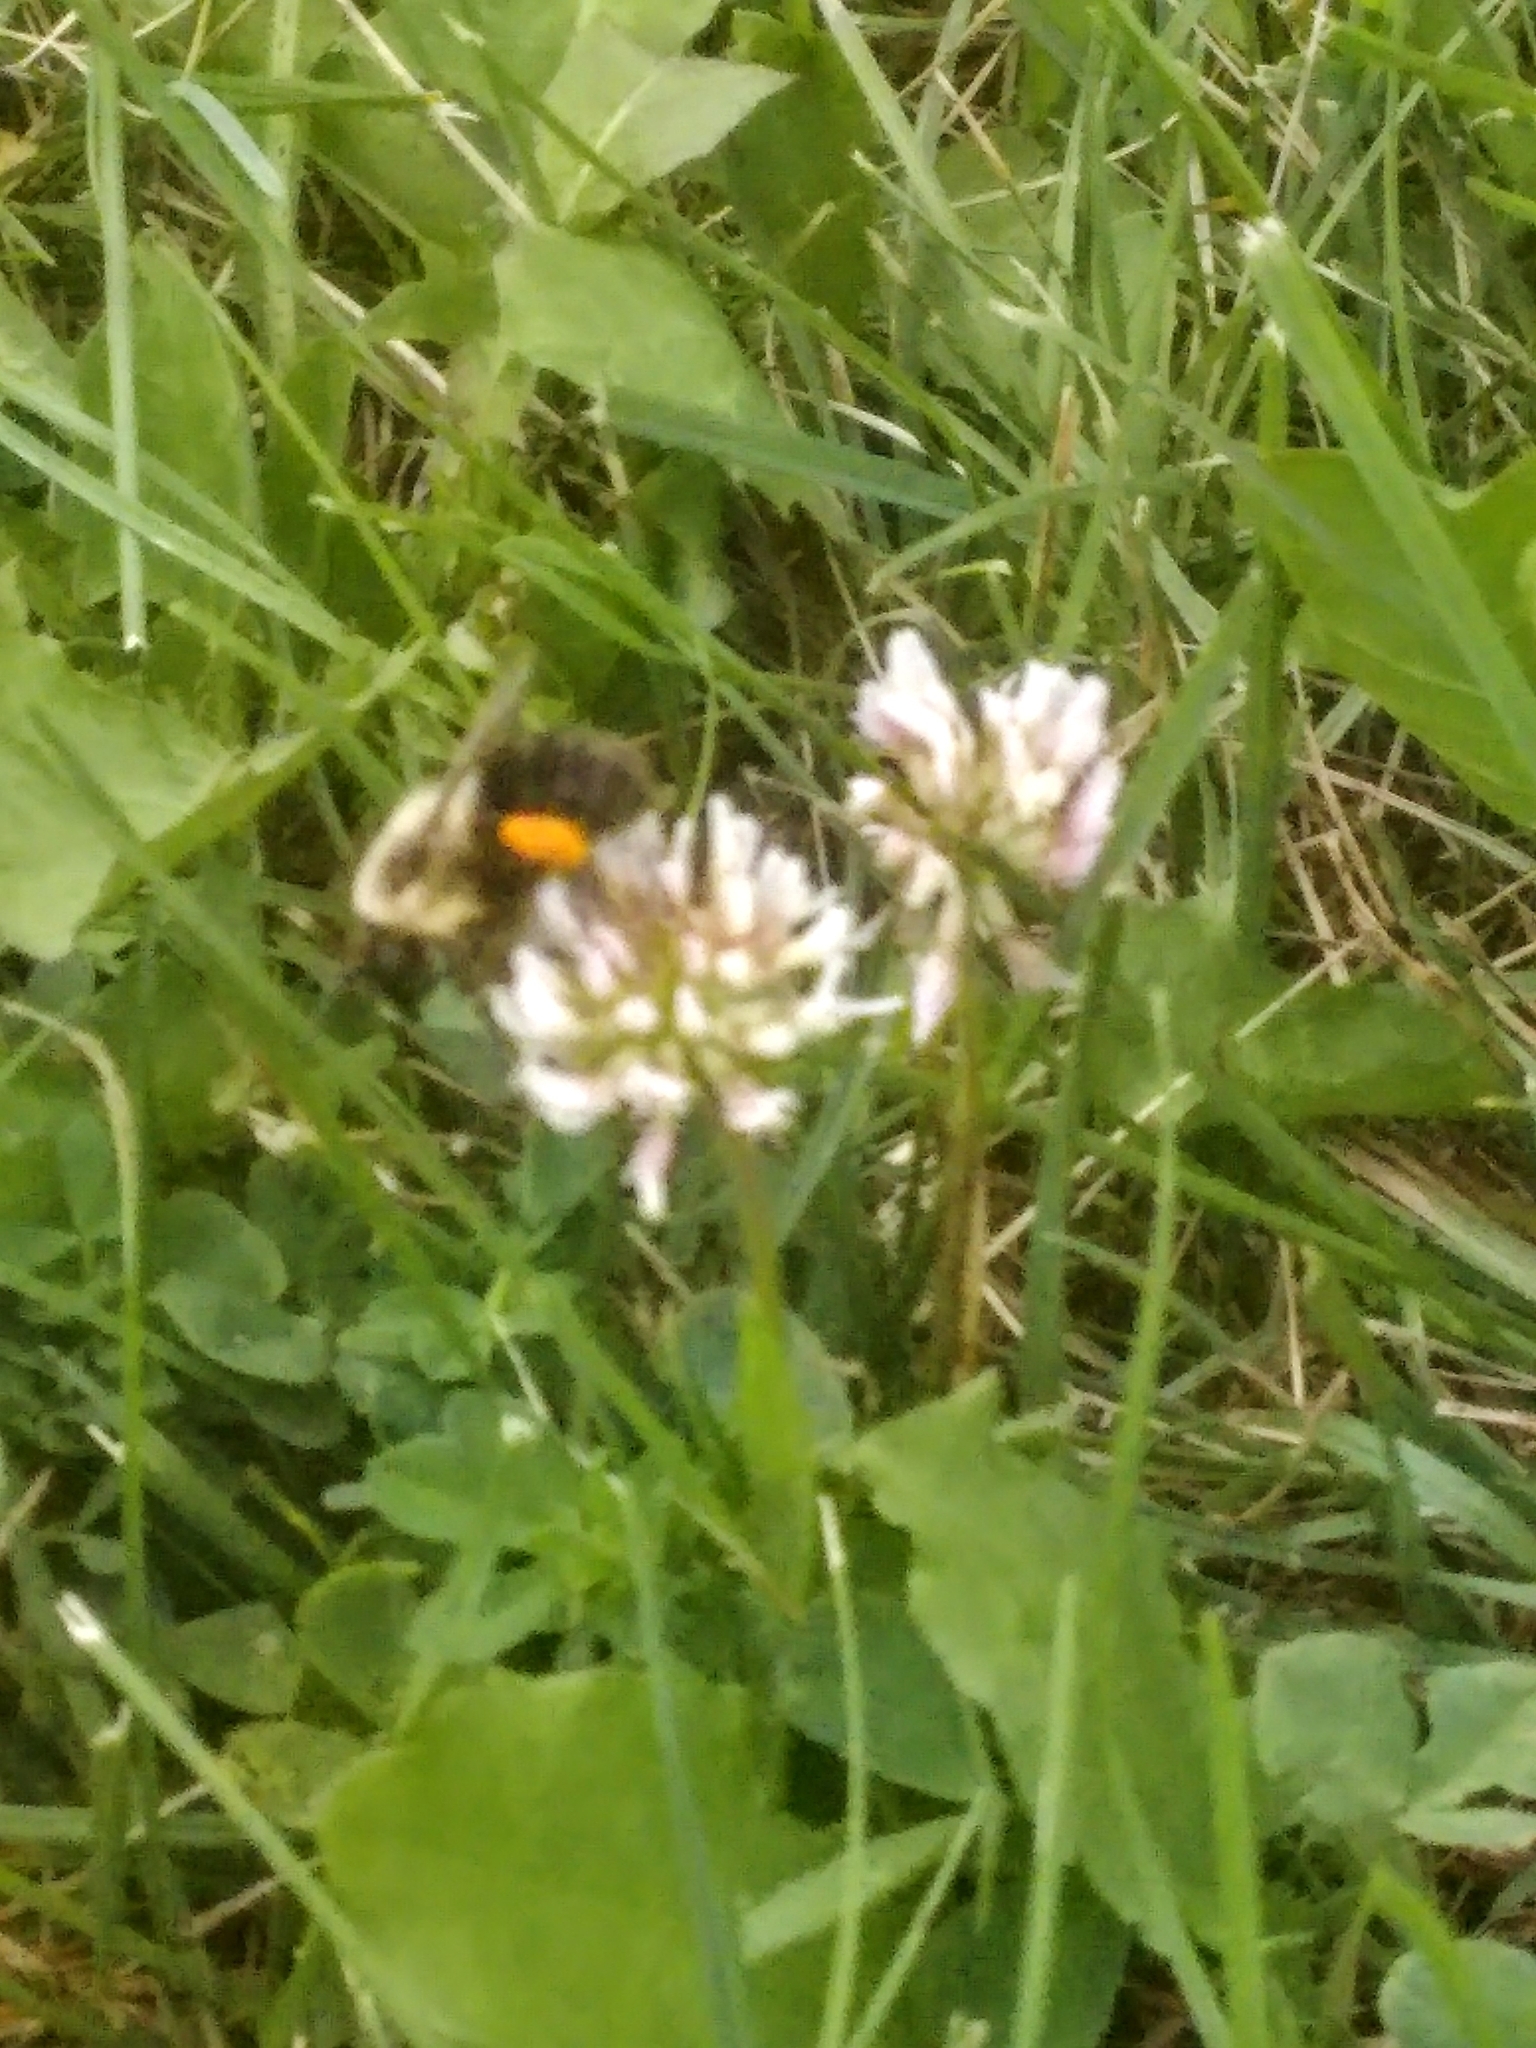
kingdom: Animalia
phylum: Arthropoda
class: Insecta
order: Hymenoptera
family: Apidae
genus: Bombus
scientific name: Bombus impatiens
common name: Common eastern bumble bee
